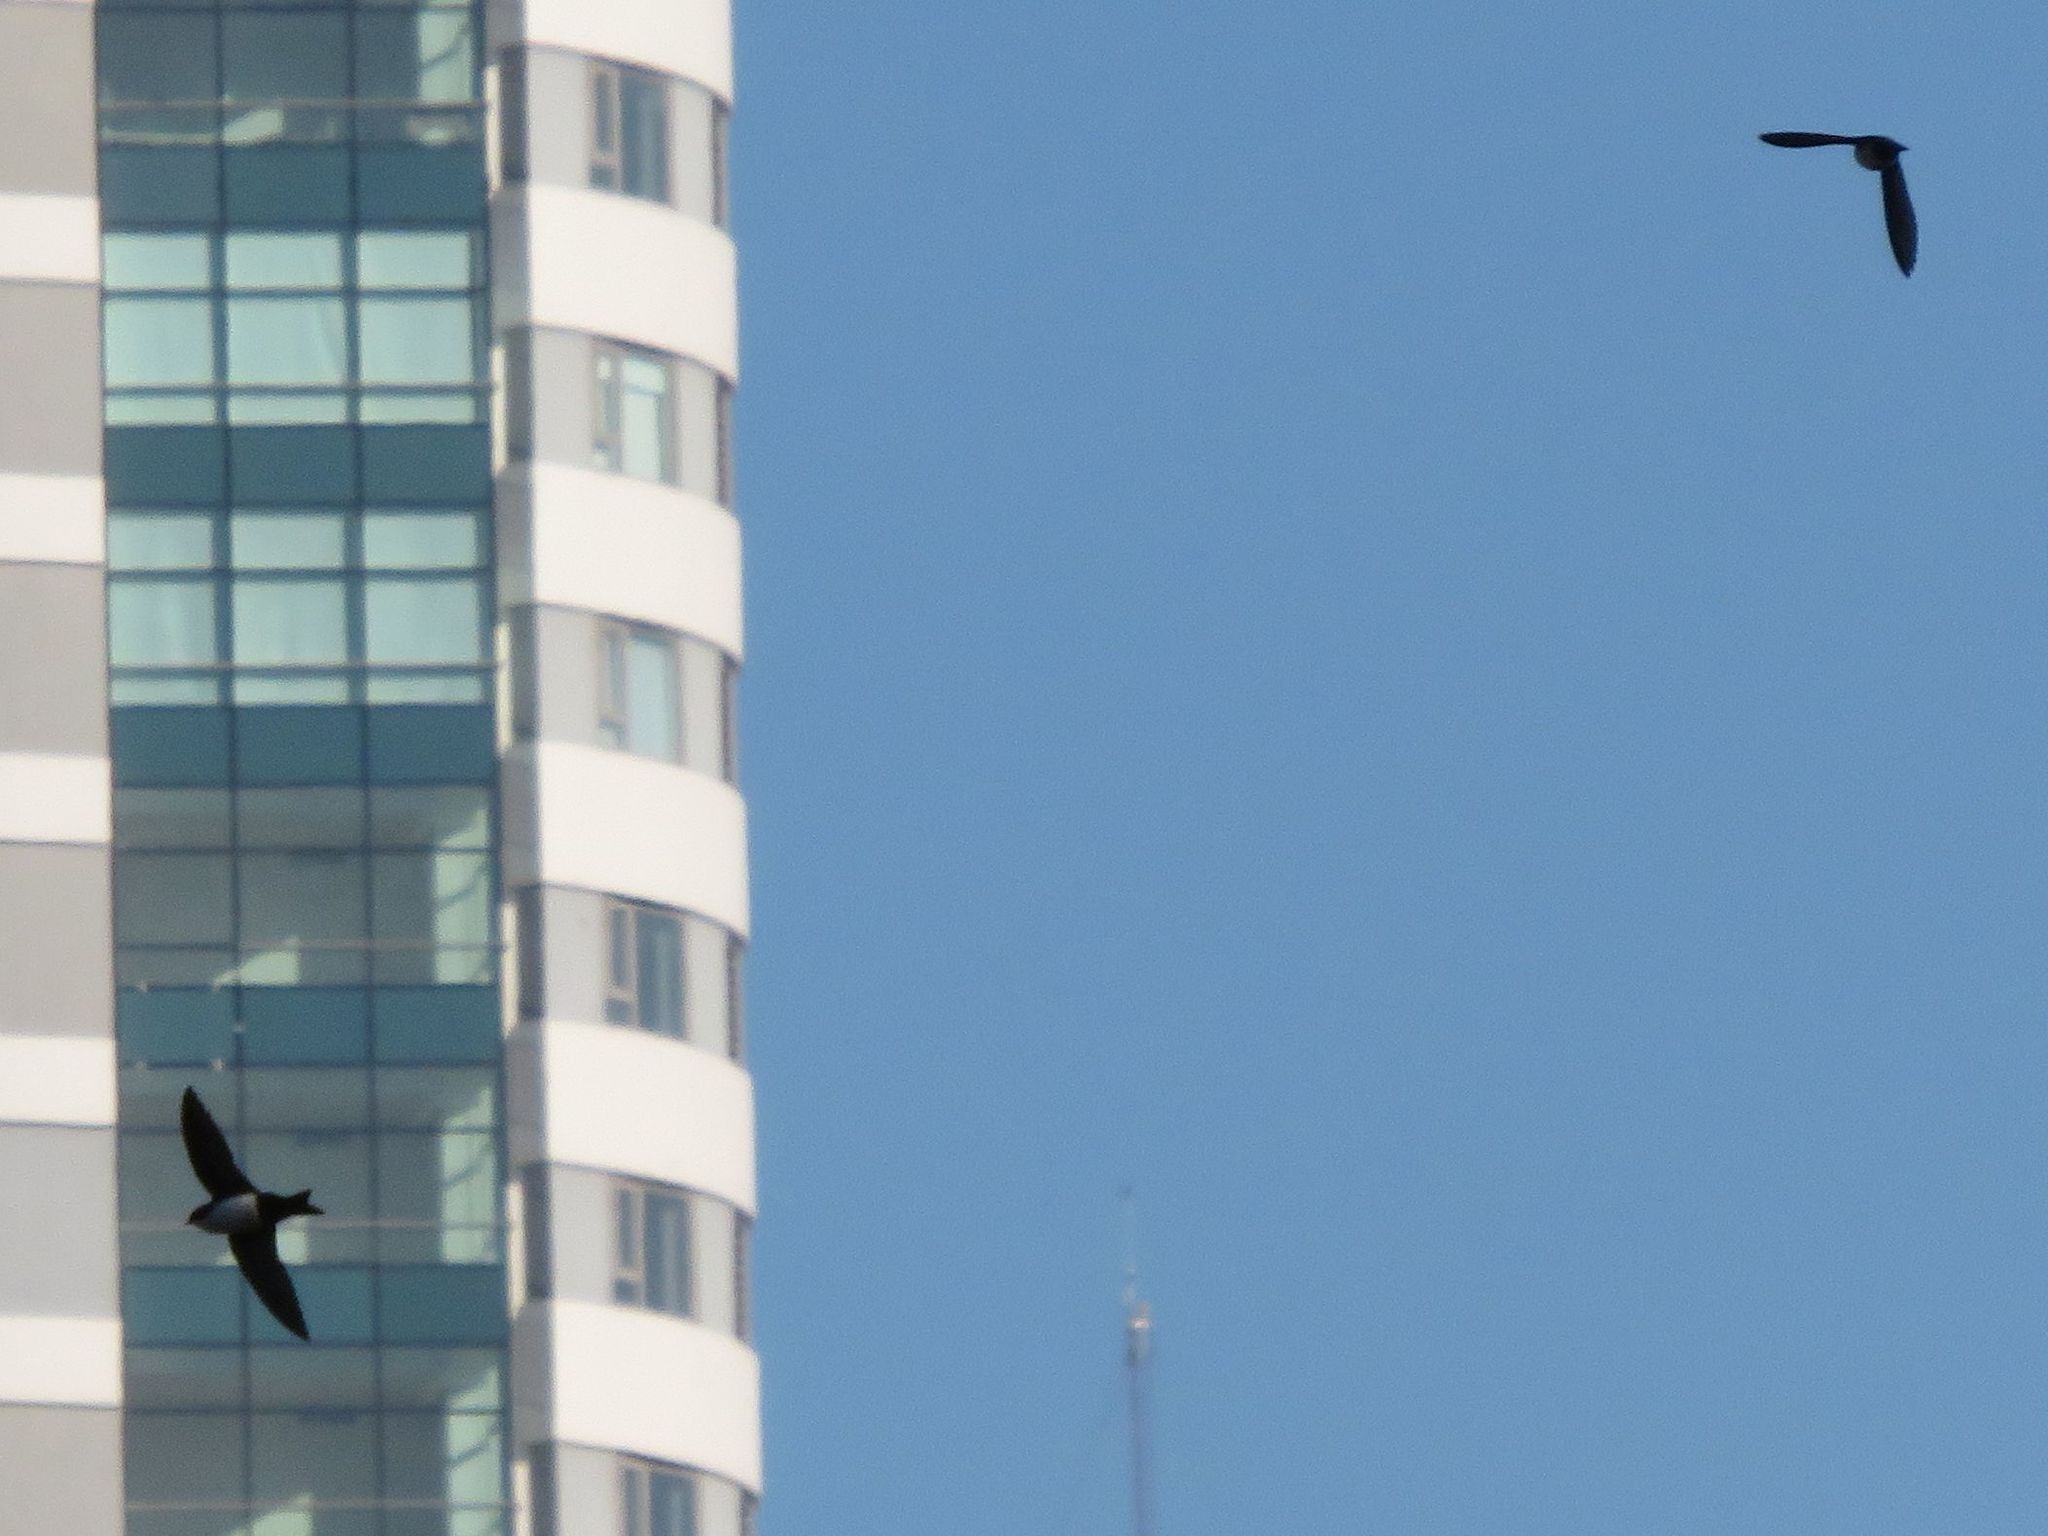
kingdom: Animalia
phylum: Chordata
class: Aves
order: Passeriformes
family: Hirundinidae
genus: Notiochelidon
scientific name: Notiochelidon cyanoleuca
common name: Blue-and-white swallow
